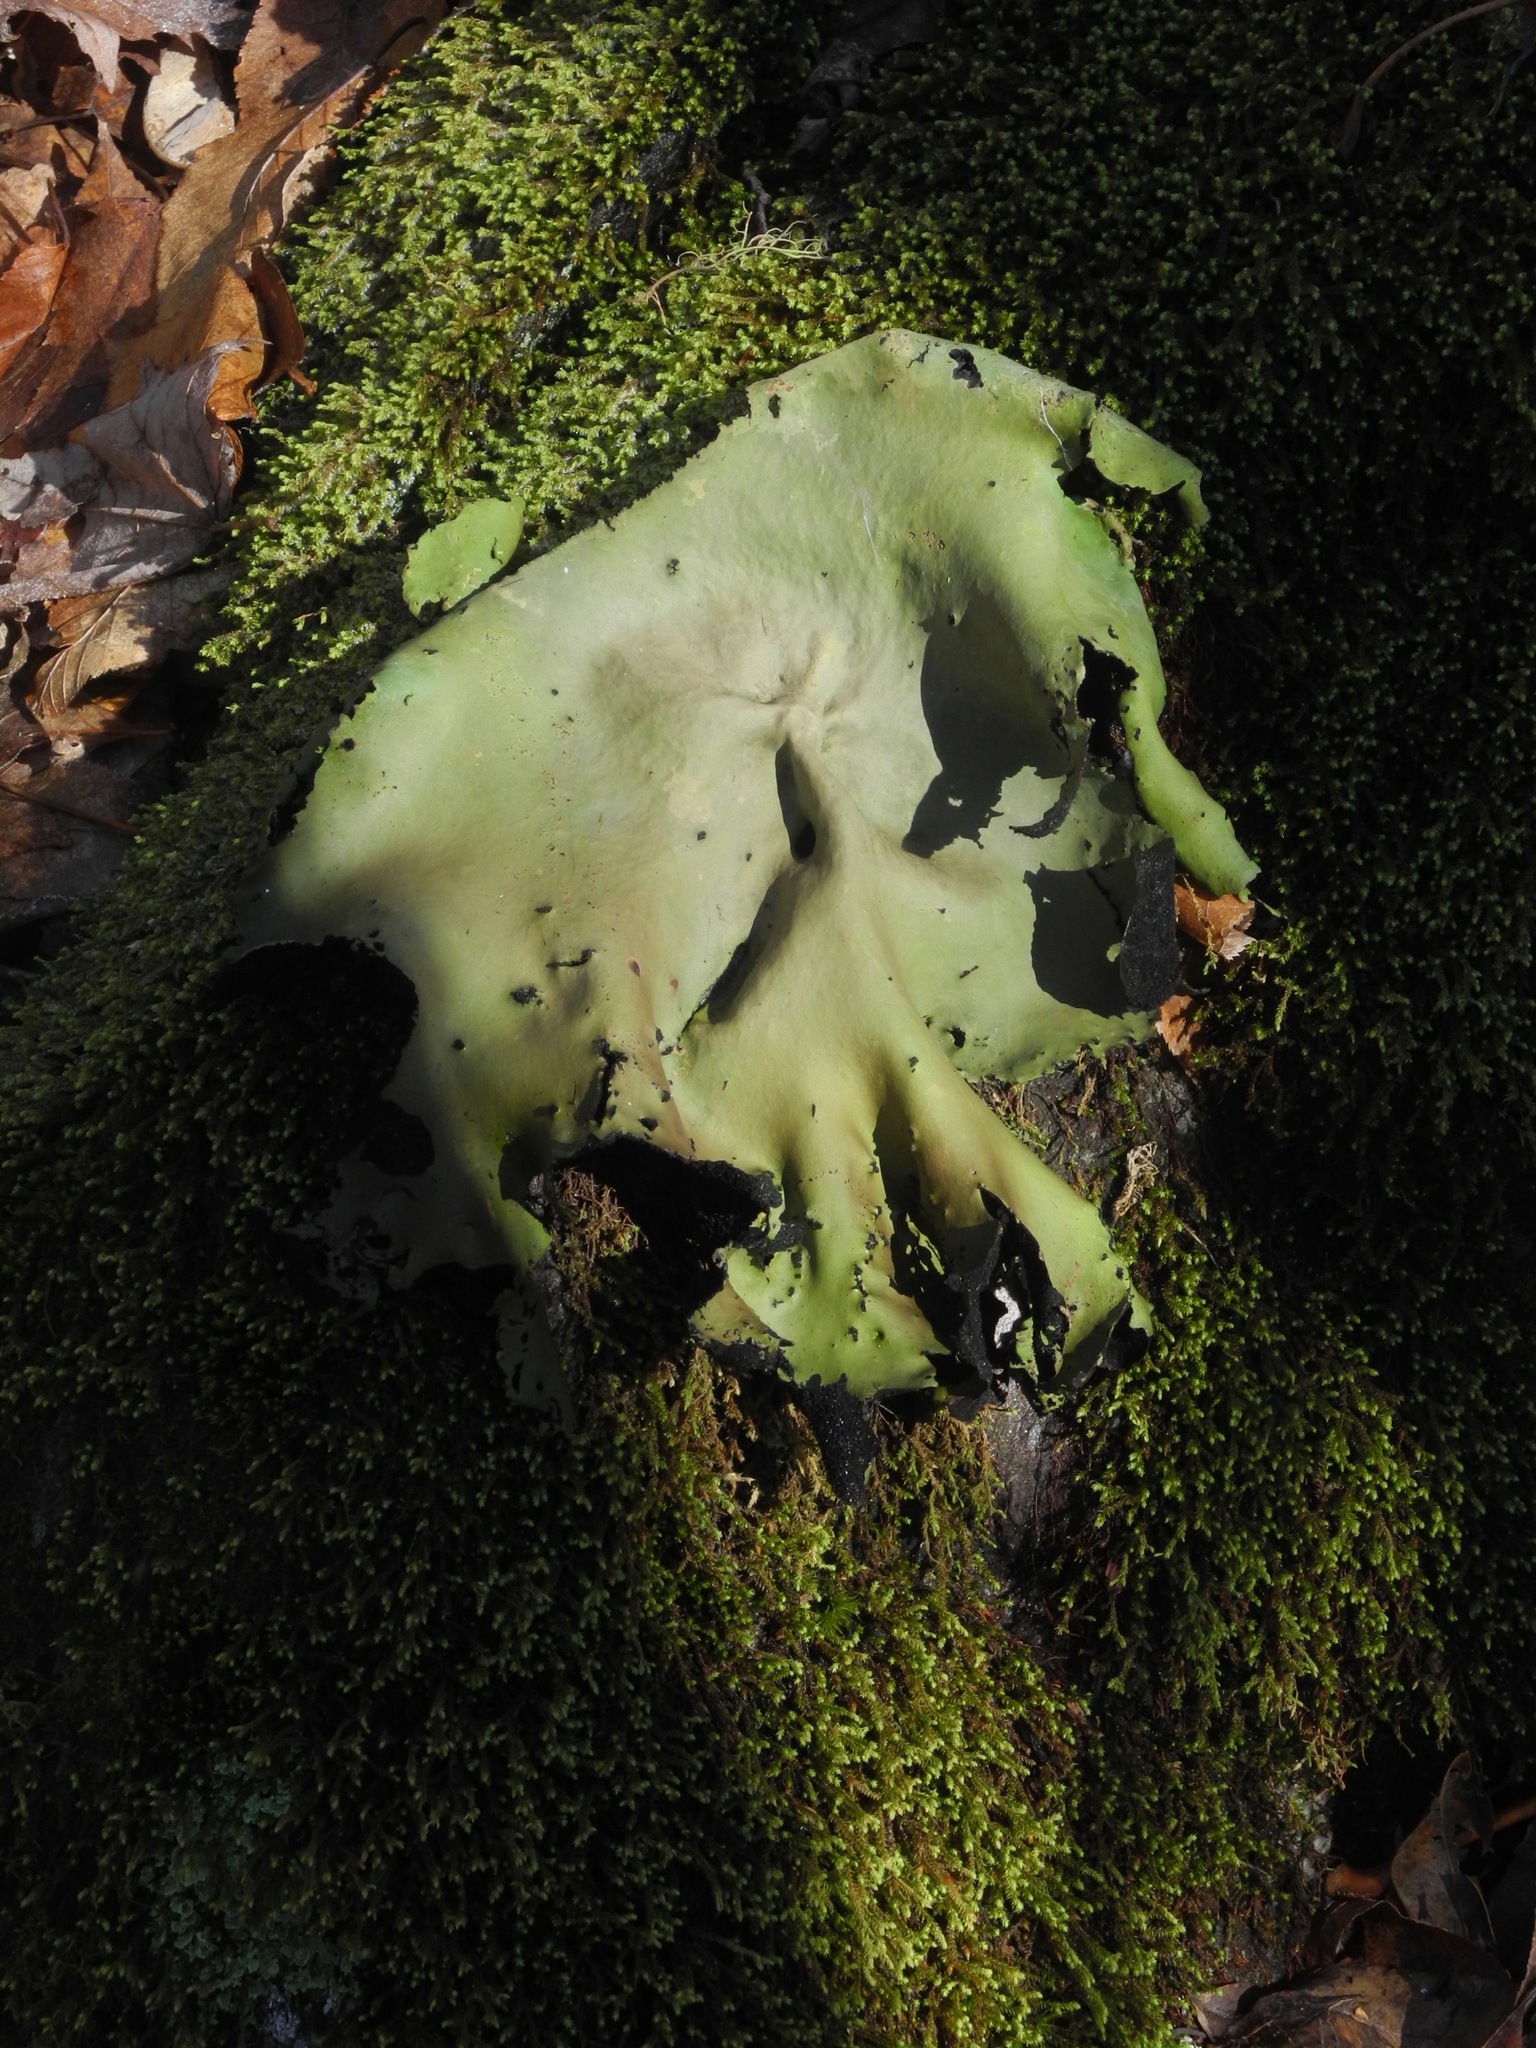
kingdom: Plantae
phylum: Bryophyta
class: Bryopsida
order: Hedwigiales
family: Hedwigiaceae
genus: Hedwigia
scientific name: Hedwigia ciliata
